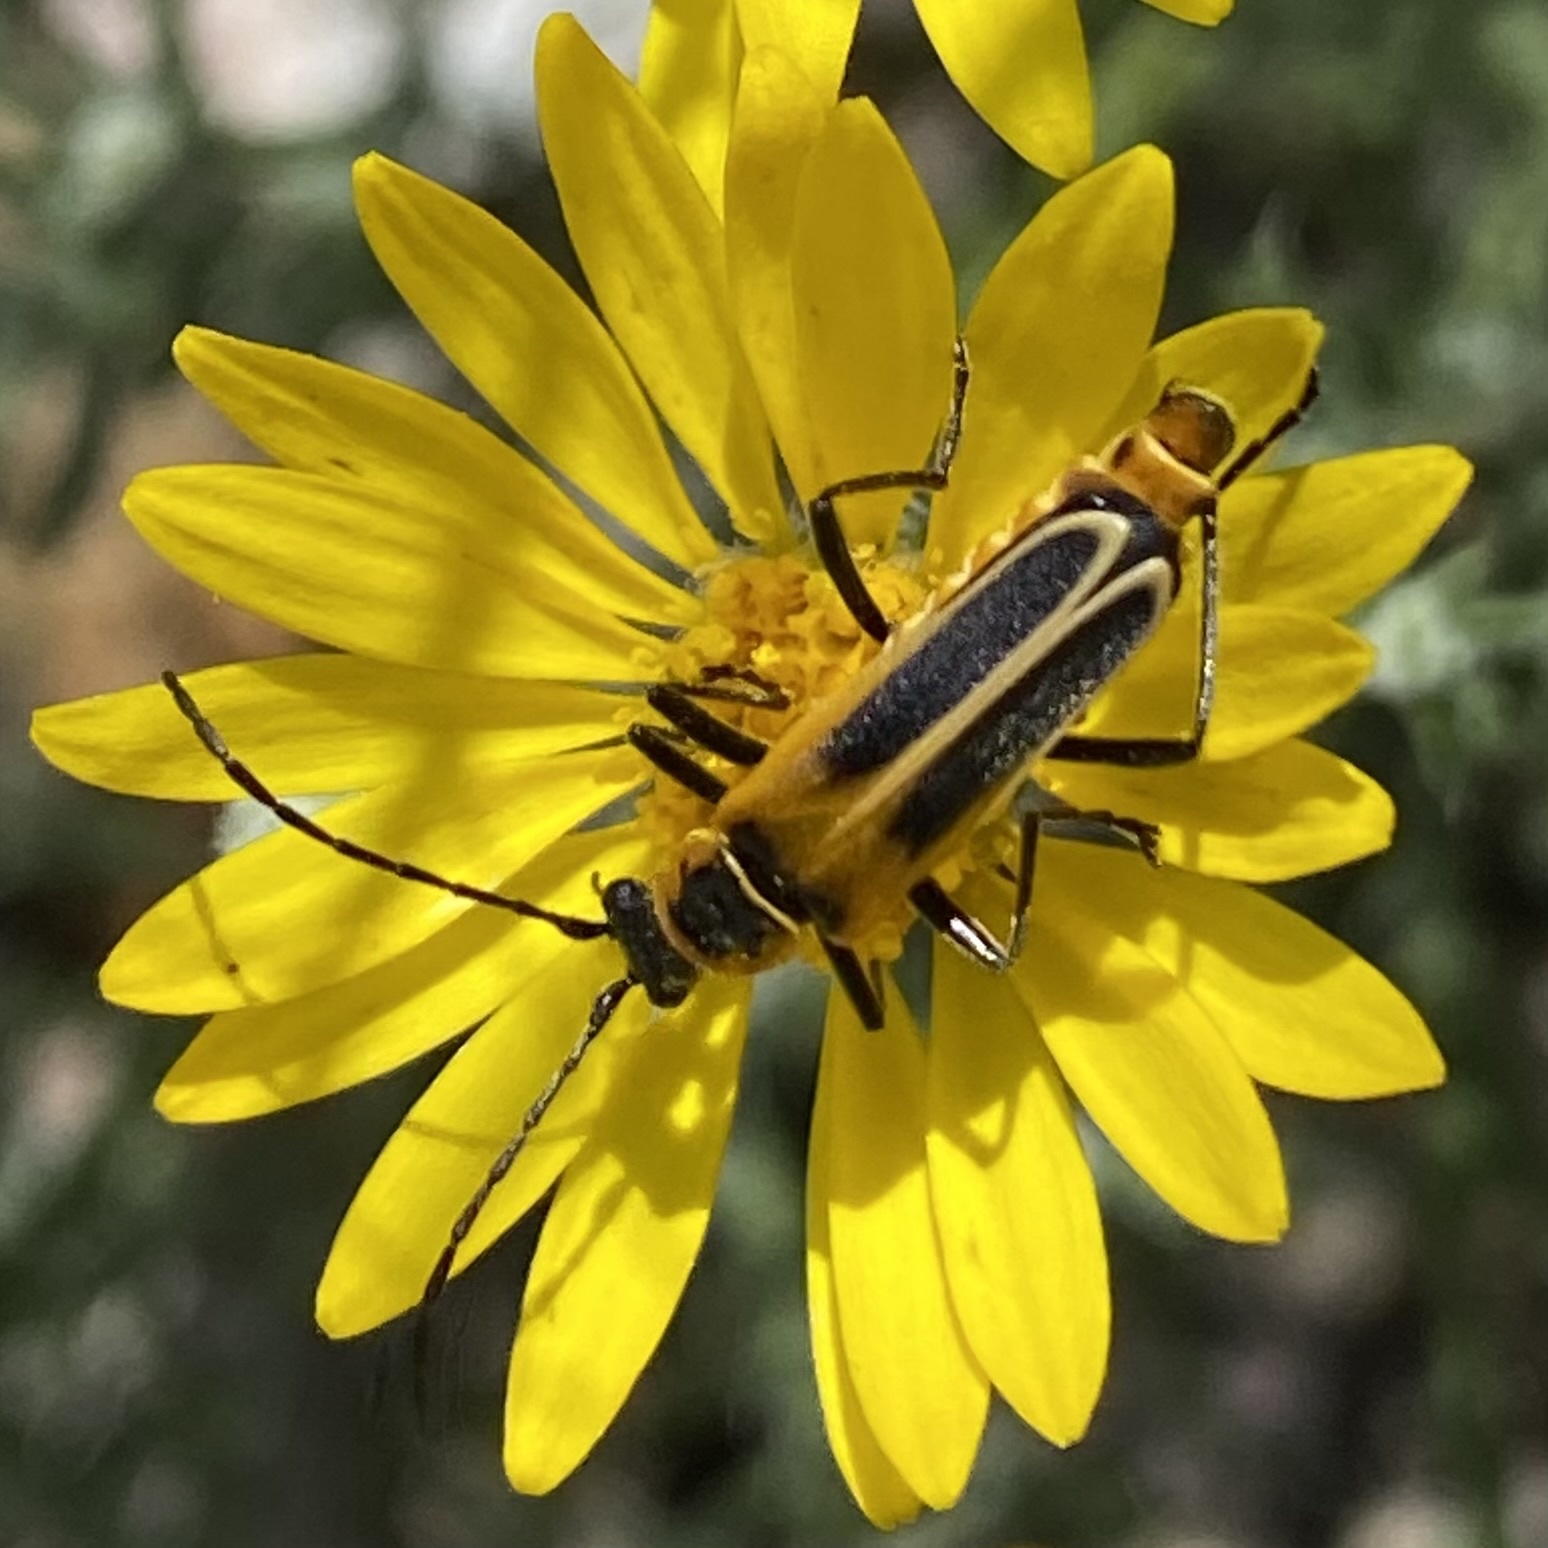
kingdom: Animalia
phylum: Arthropoda
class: Insecta
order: Coleoptera
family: Cantharidae
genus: Chauliognathus
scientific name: Chauliognathus lewisi
